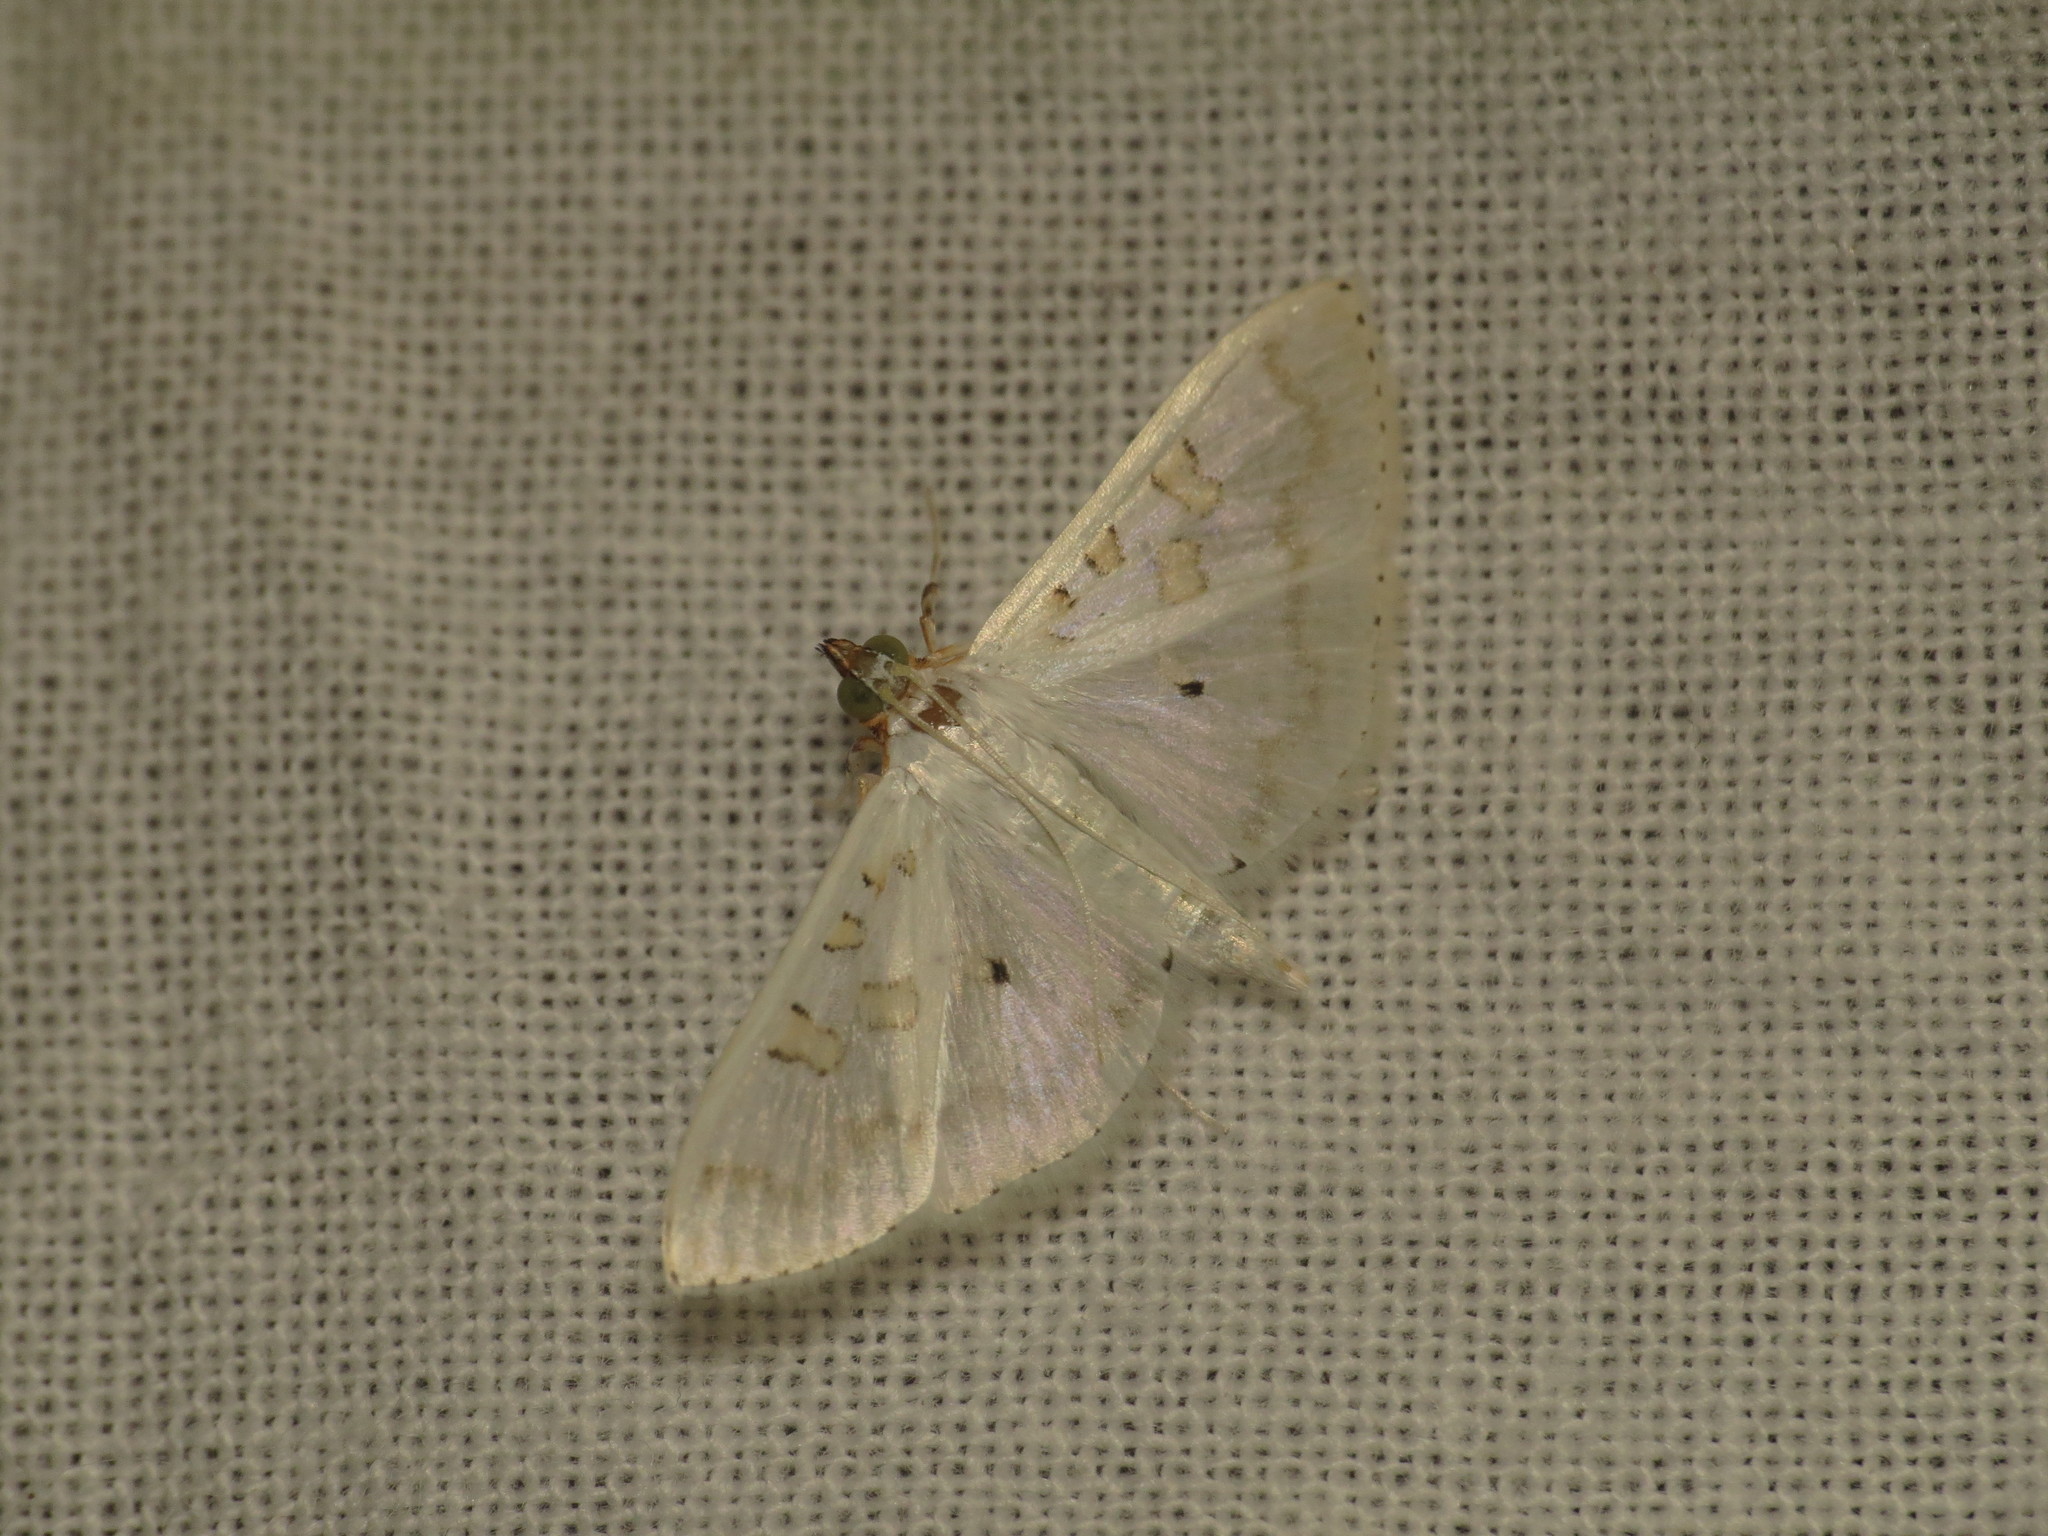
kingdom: Animalia
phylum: Arthropoda
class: Insecta
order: Lepidoptera
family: Crambidae
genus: Palpita
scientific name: Palpita horakae
